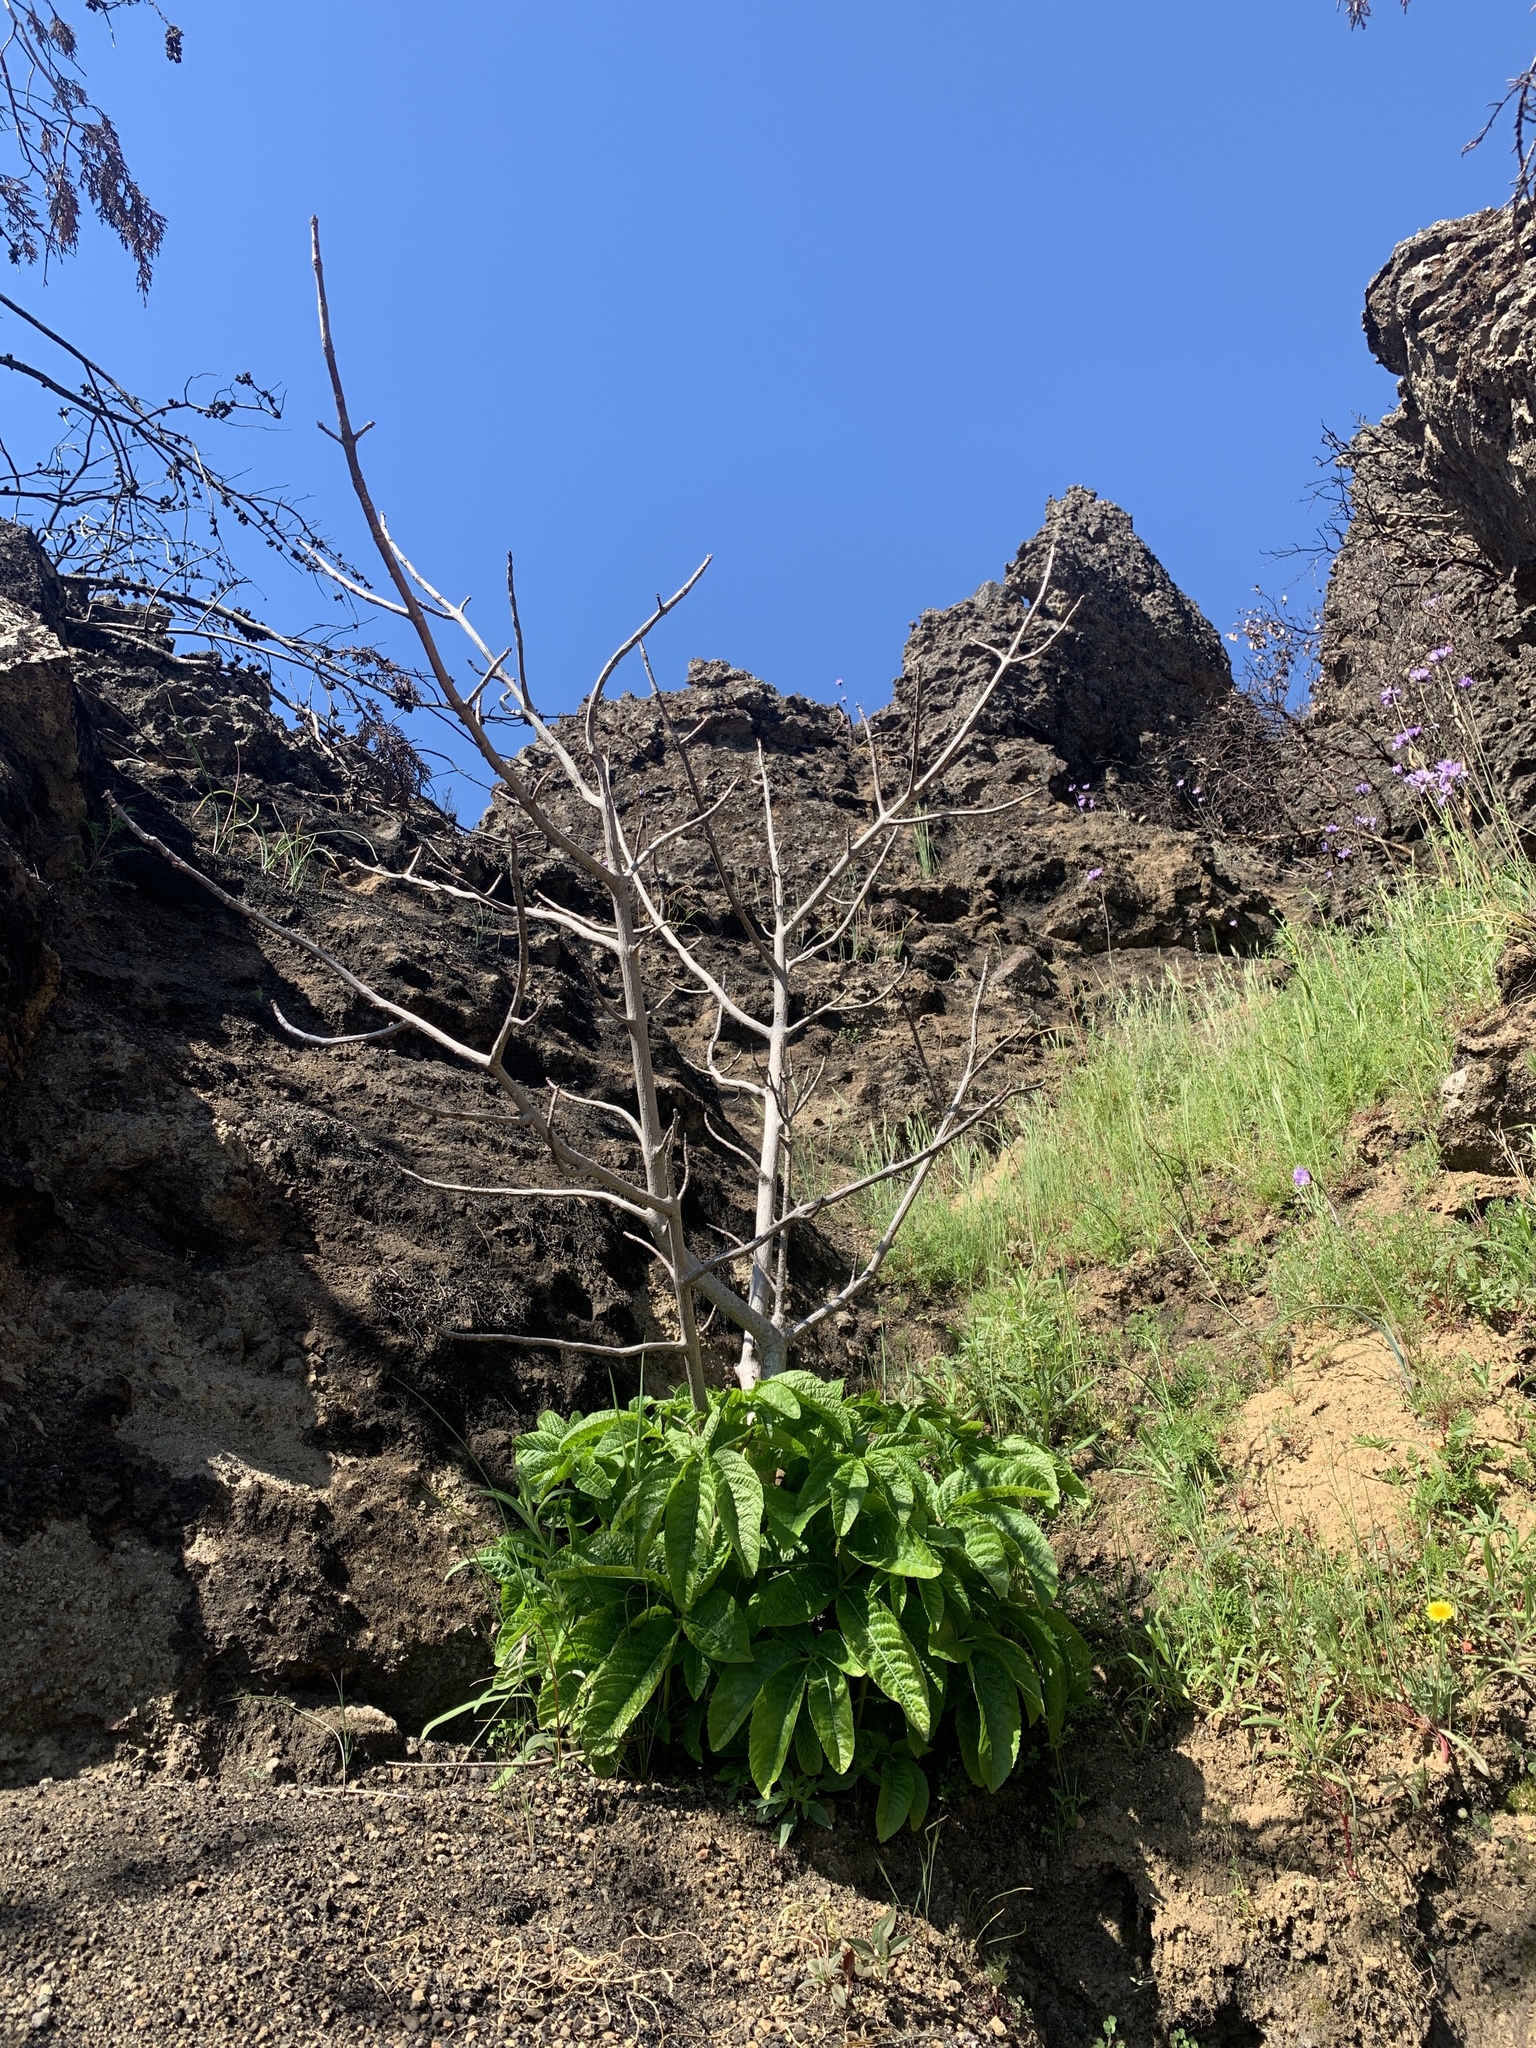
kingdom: Plantae
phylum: Tracheophyta
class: Magnoliopsida
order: Sapindales
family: Sapindaceae
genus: Aesculus
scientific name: Aesculus californica
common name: California buckeye
